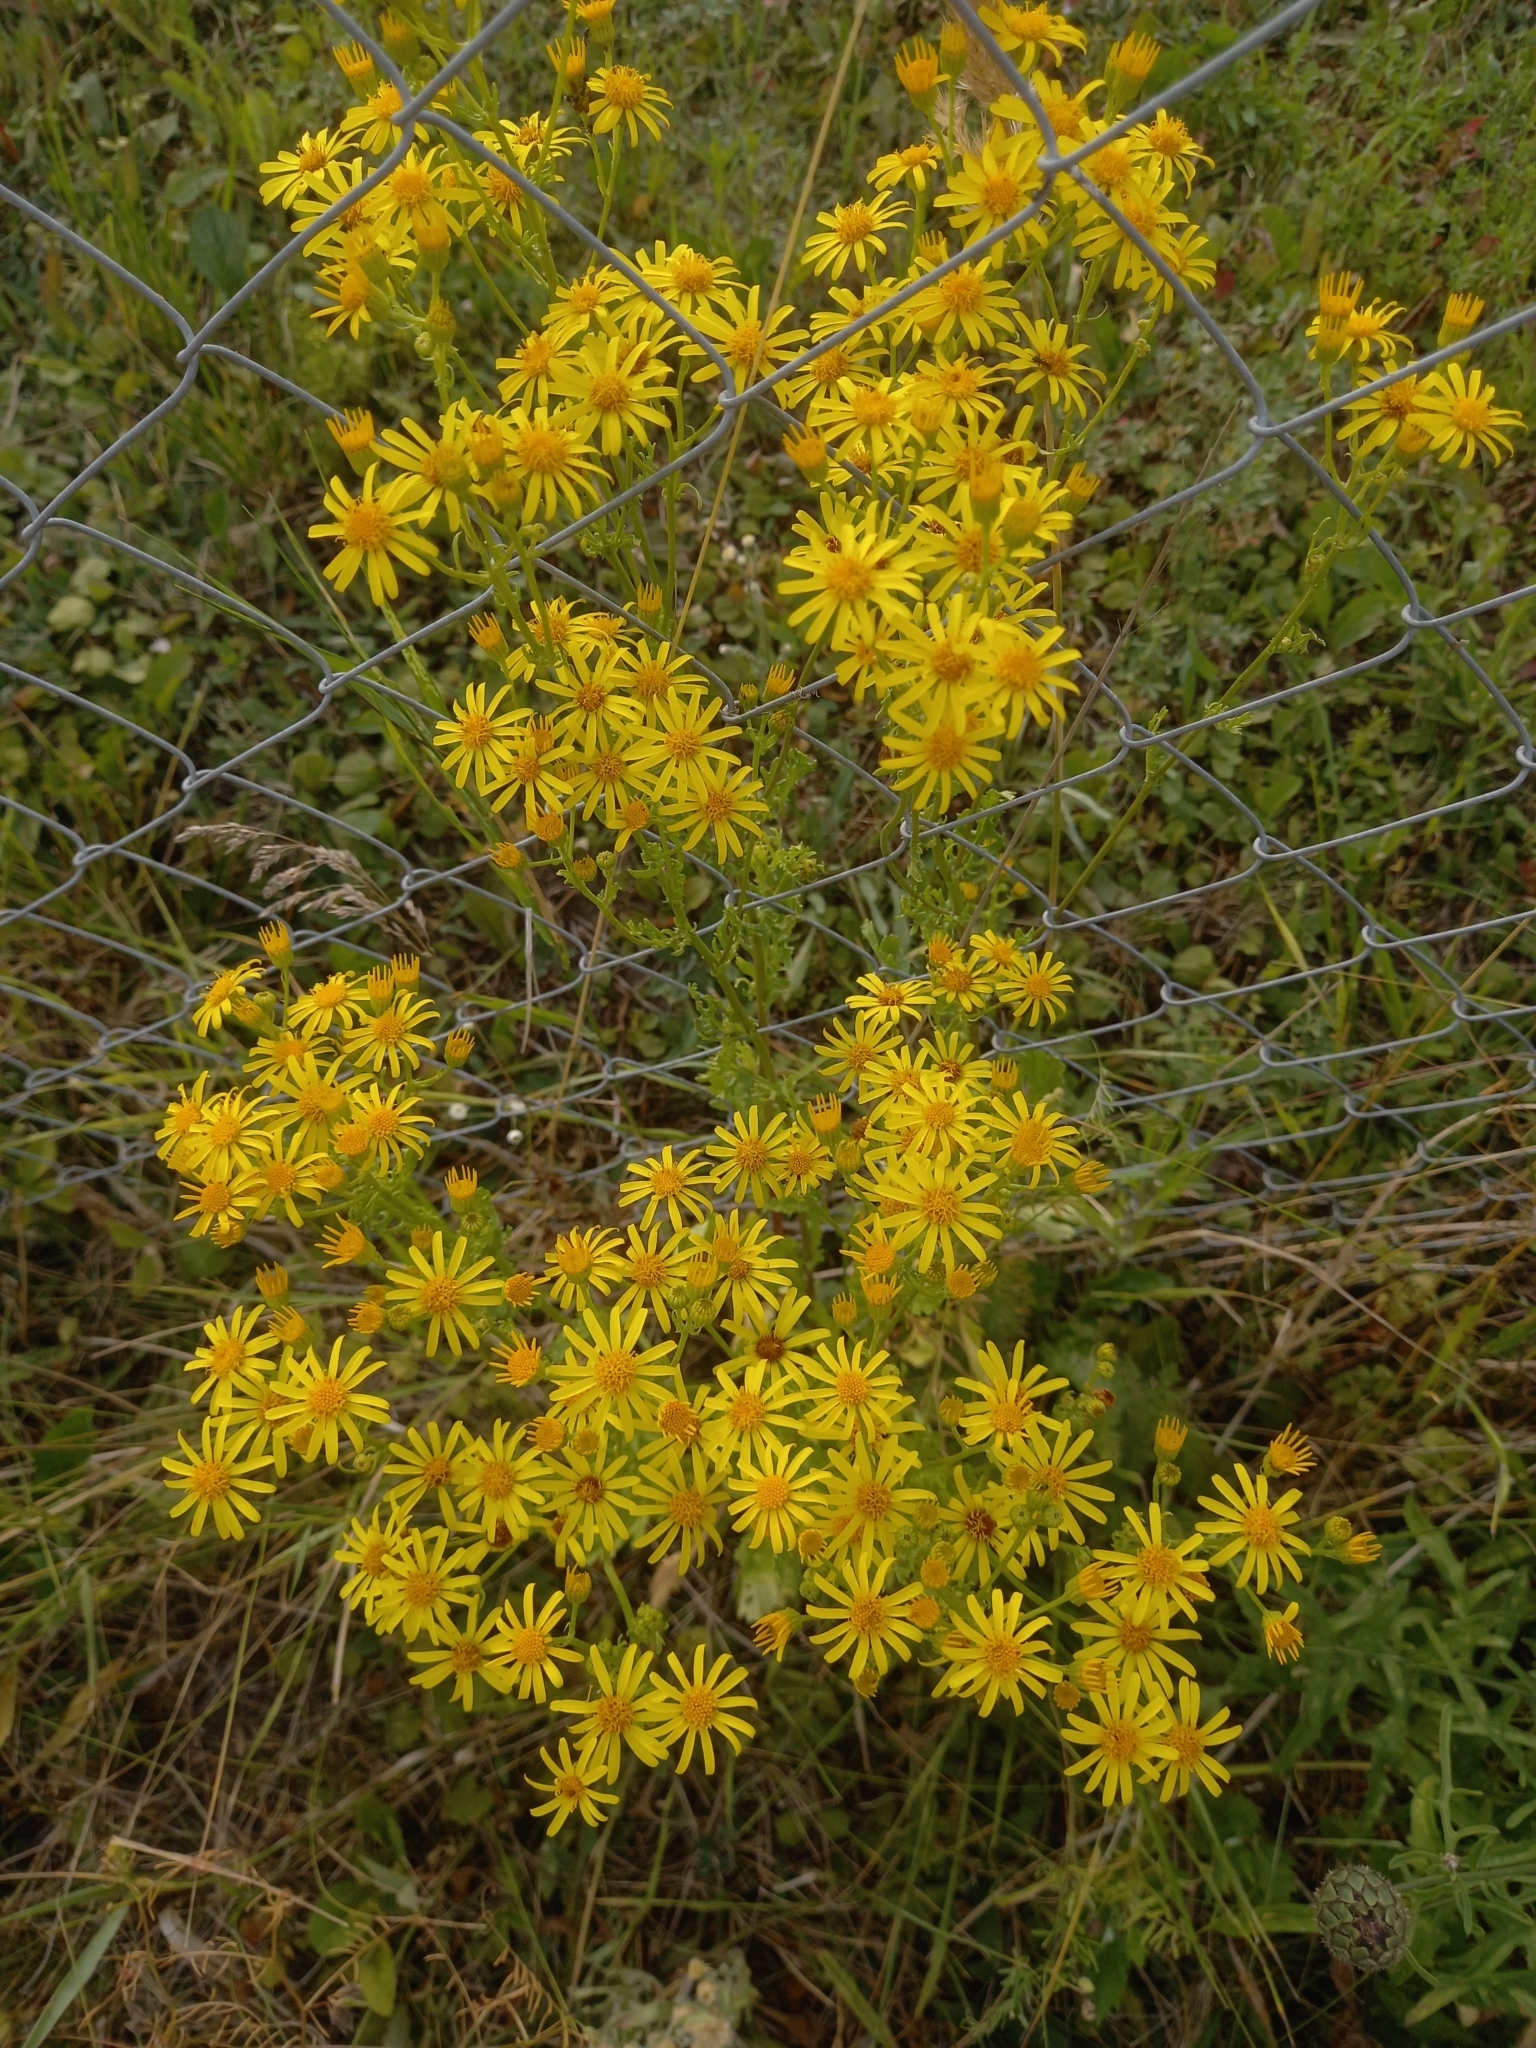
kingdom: Plantae
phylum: Tracheophyta
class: Magnoliopsida
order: Asterales
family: Asteraceae
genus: Jacobaea
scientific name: Jacobaea vulgaris
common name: Stinking willie
